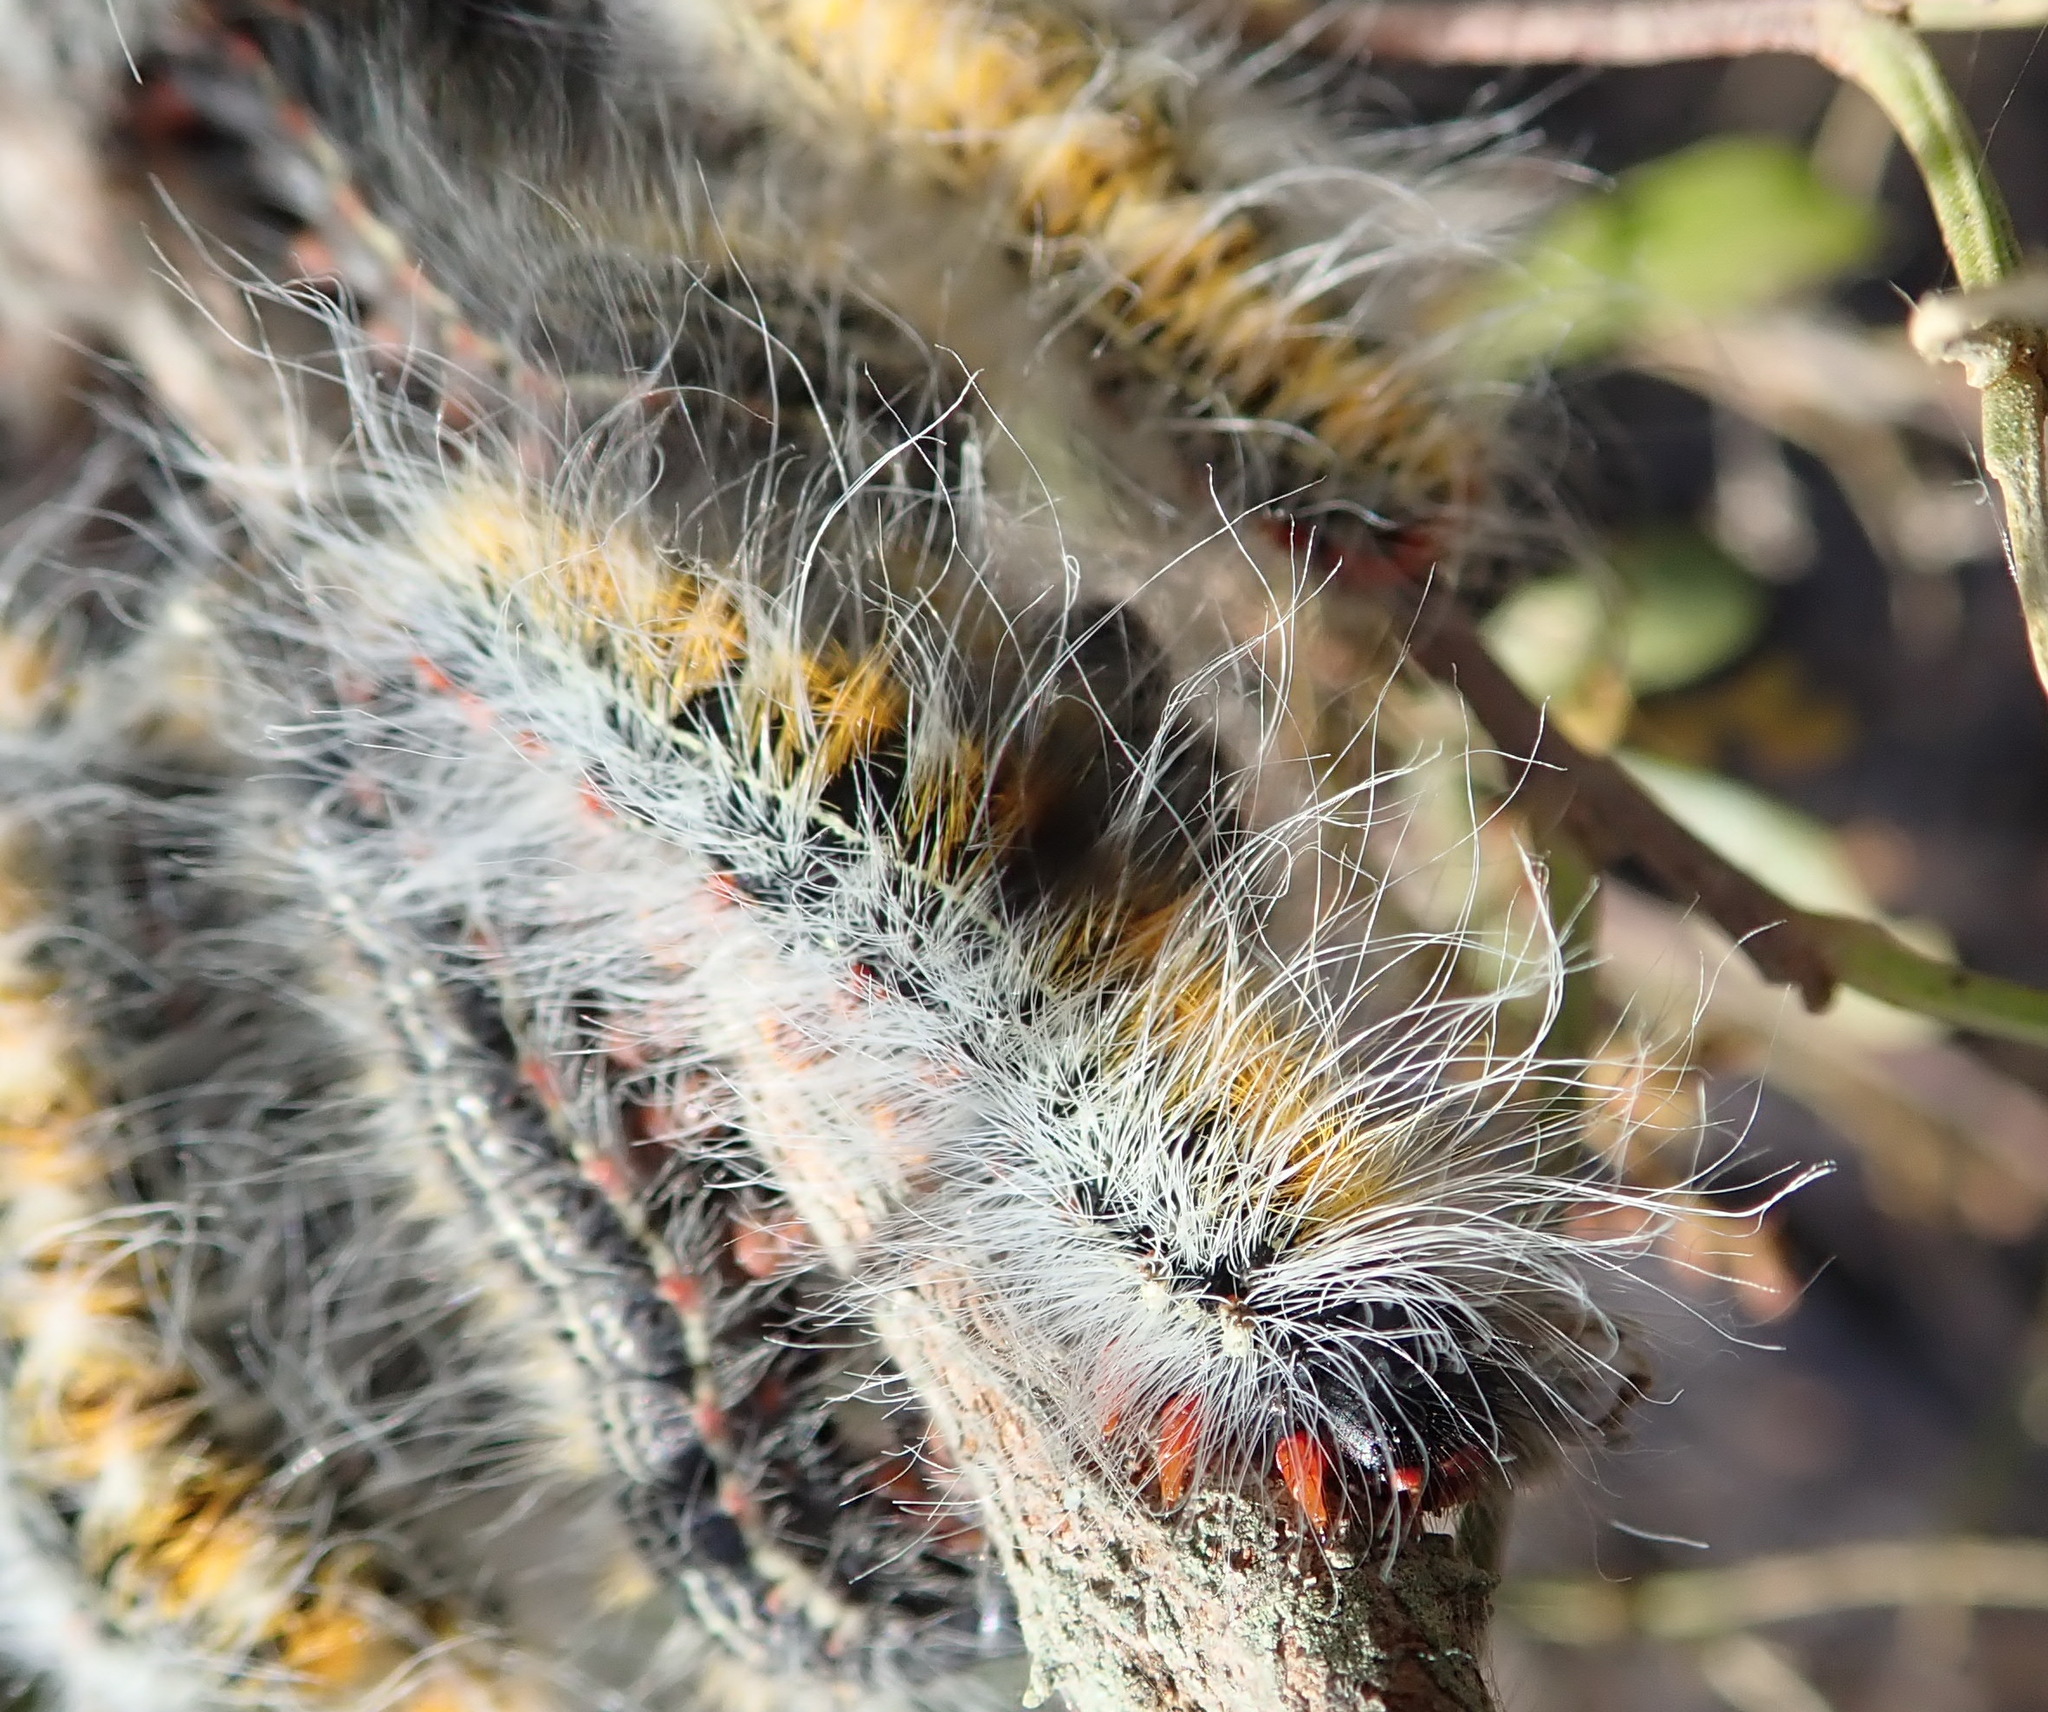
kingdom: Animalia
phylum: Arthropoda
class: Insecta
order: Lepidoptera
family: Lasiocampidae
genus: Bombycomorpha
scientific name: Bombycomorpha bifascia
